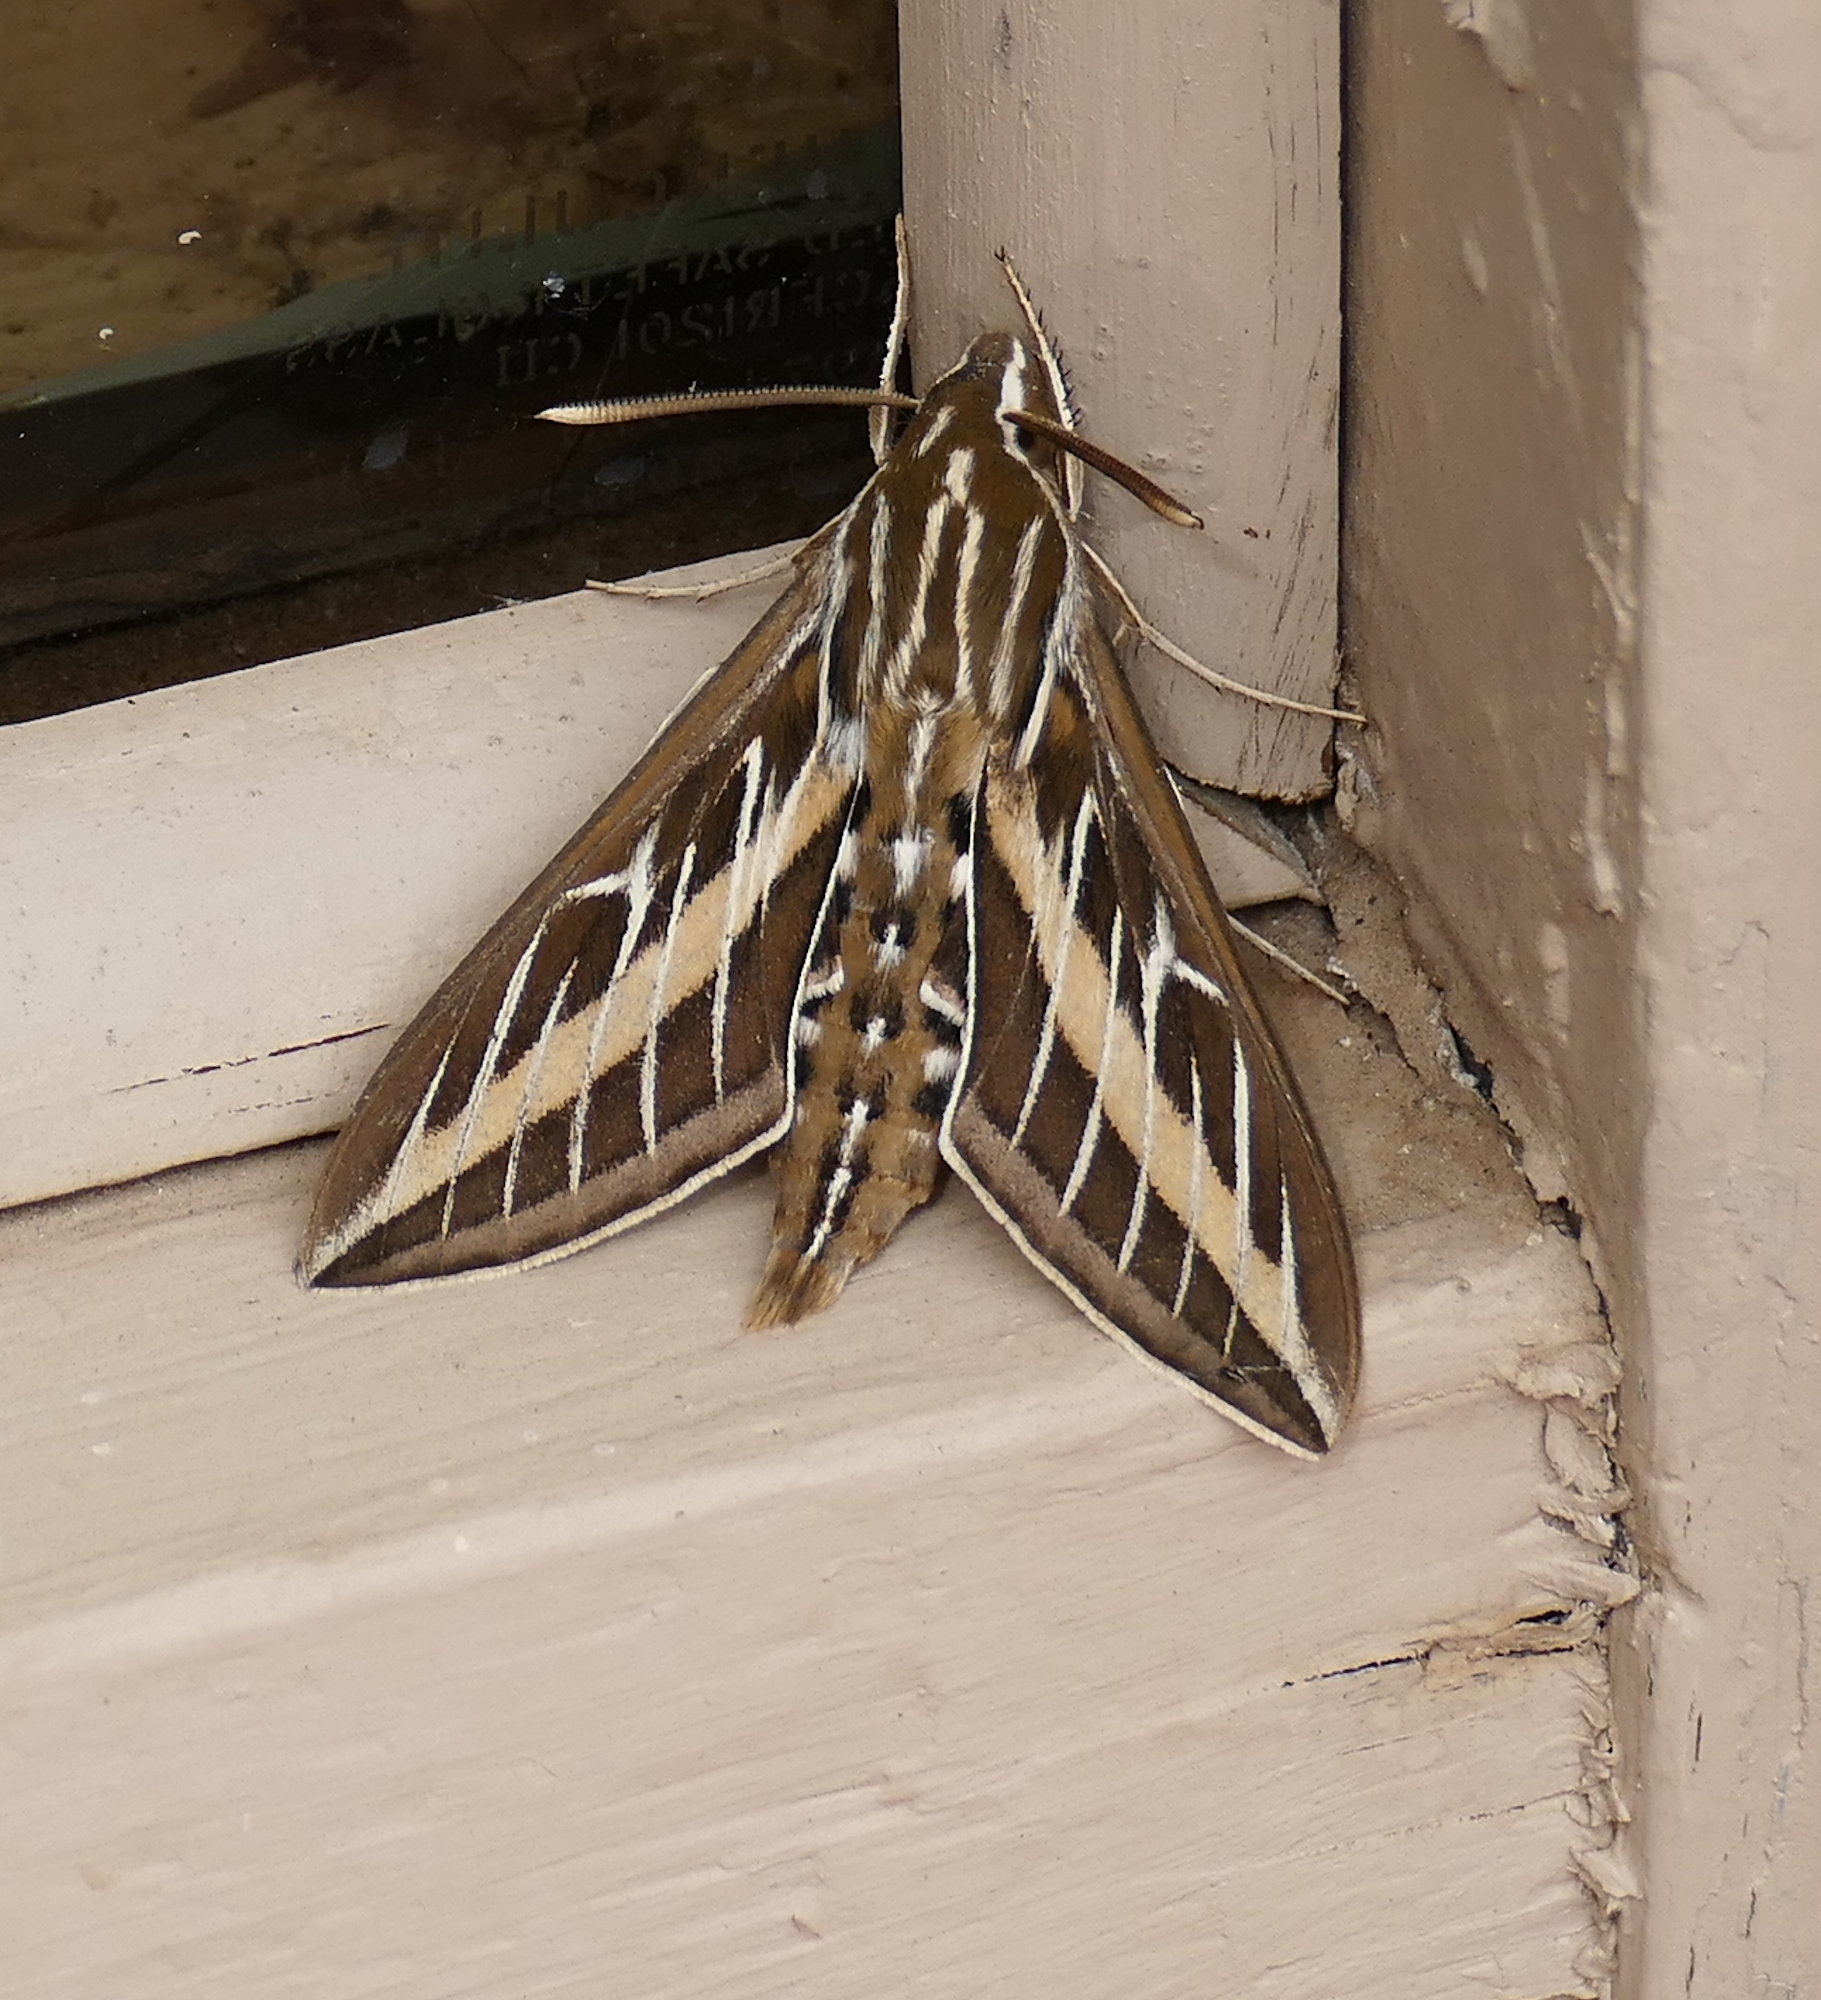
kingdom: Animalia
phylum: Arthropoda
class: Insecta
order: Lepidoptera
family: Sphingidae
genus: Hyles
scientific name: Hyles lineata
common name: White-lined sphinx
